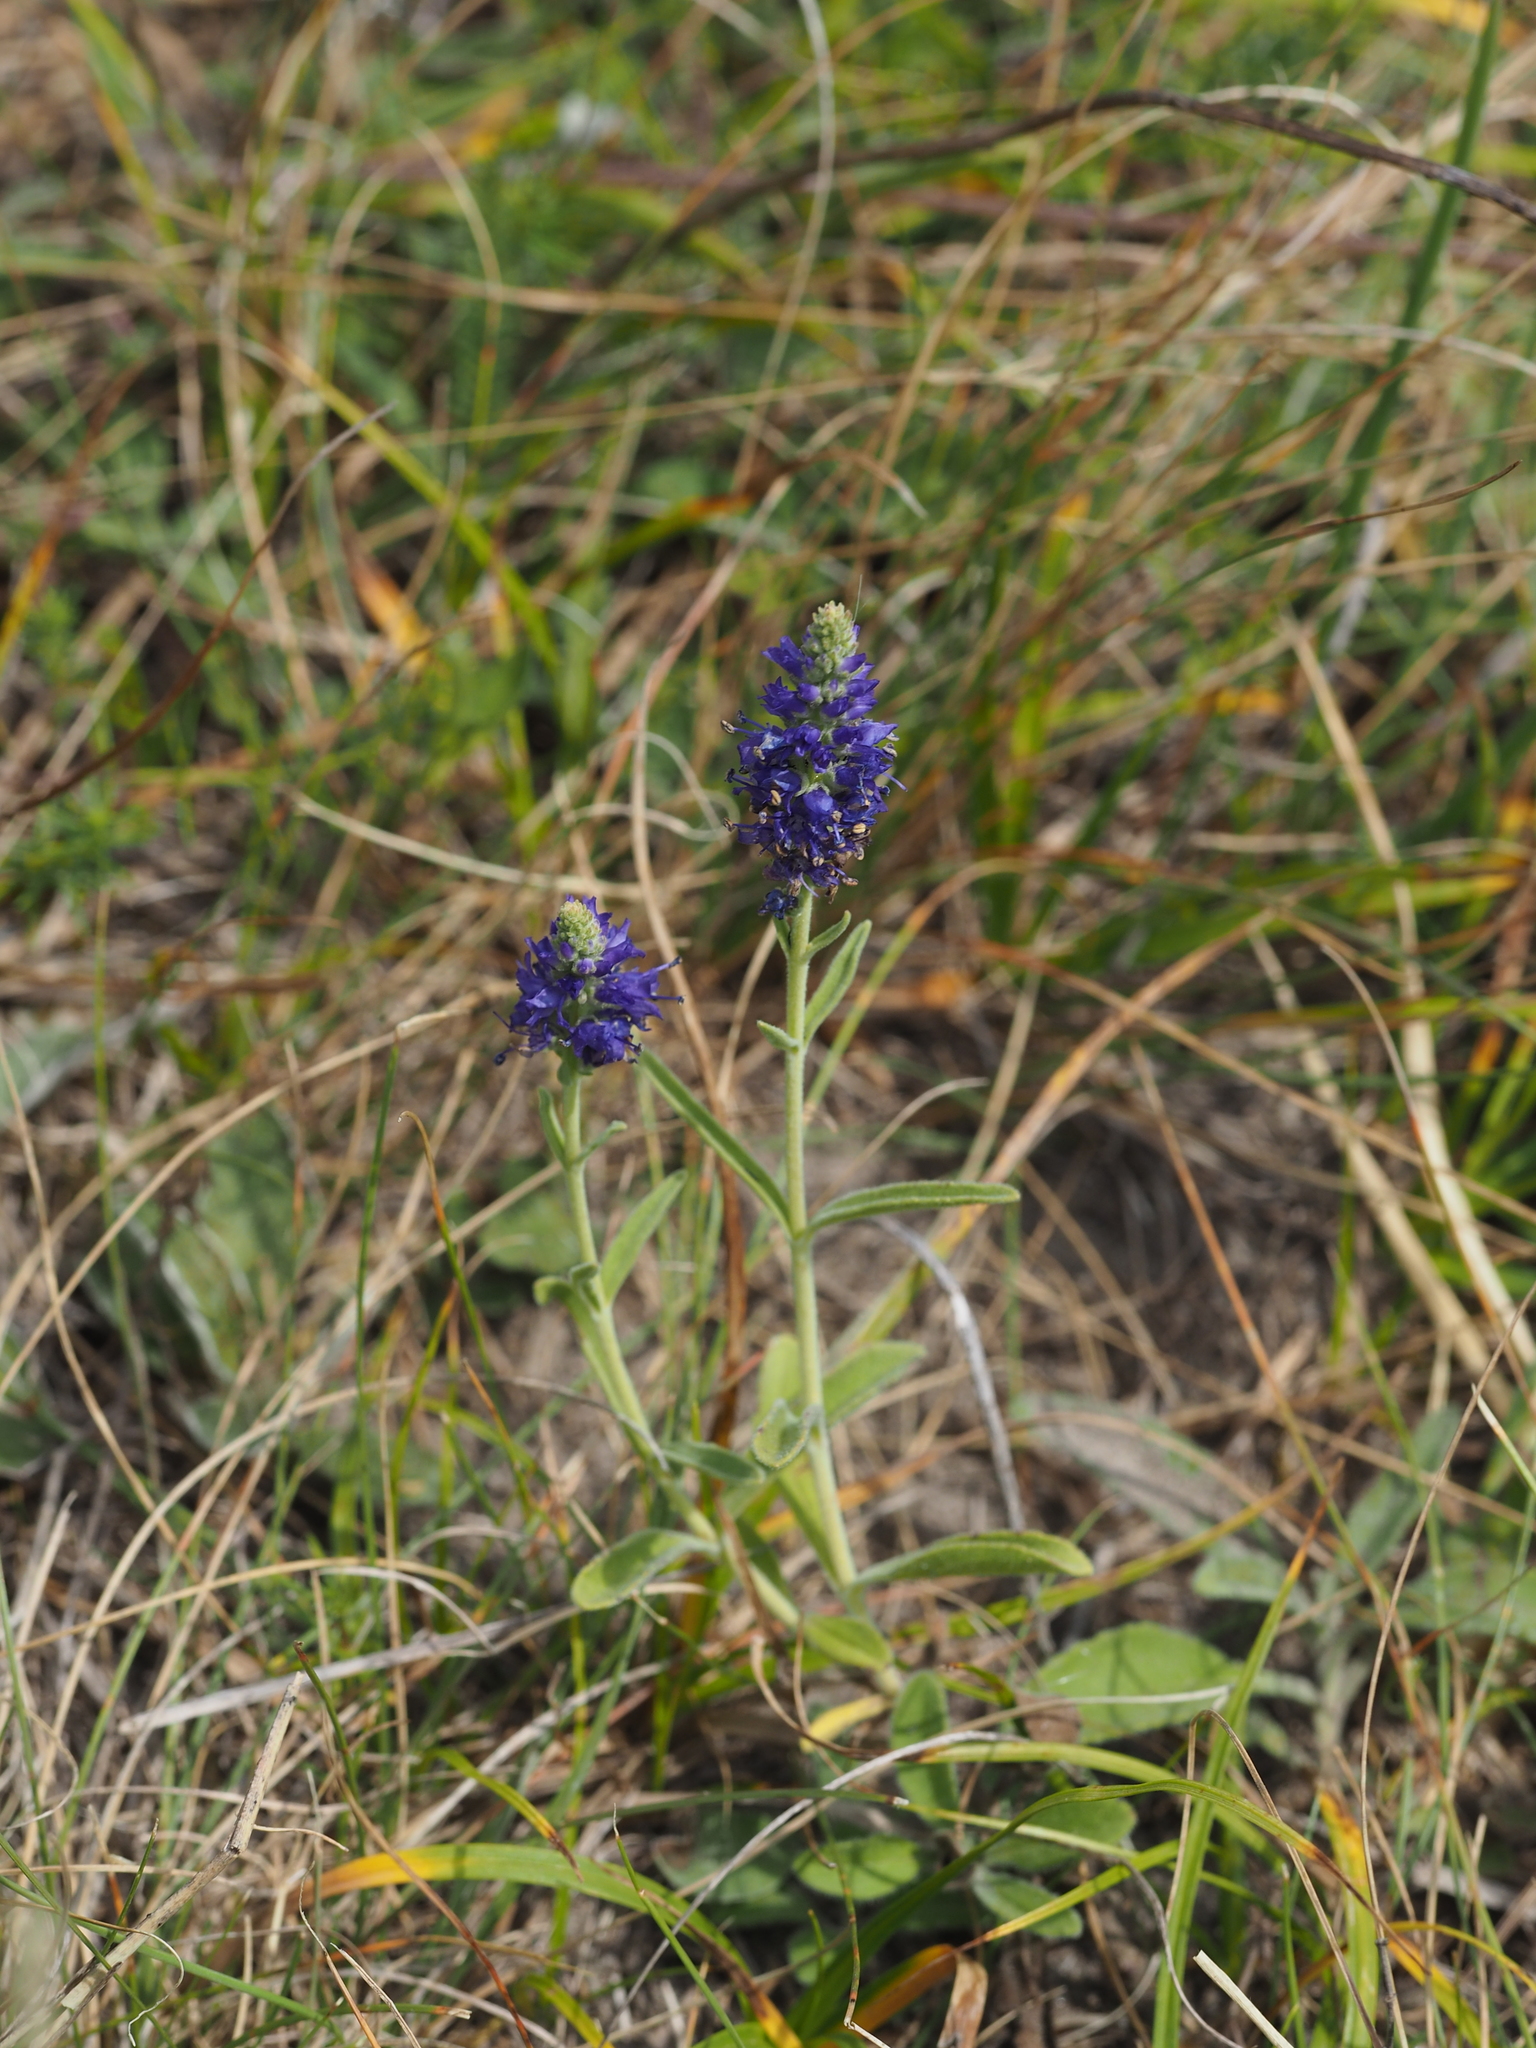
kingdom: Plantae
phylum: Tracheophyta
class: Magnoliopsida
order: Lamiales
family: Plantaginaceae
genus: Veronica
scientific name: Veronica spicata
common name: Spiked speedwell
